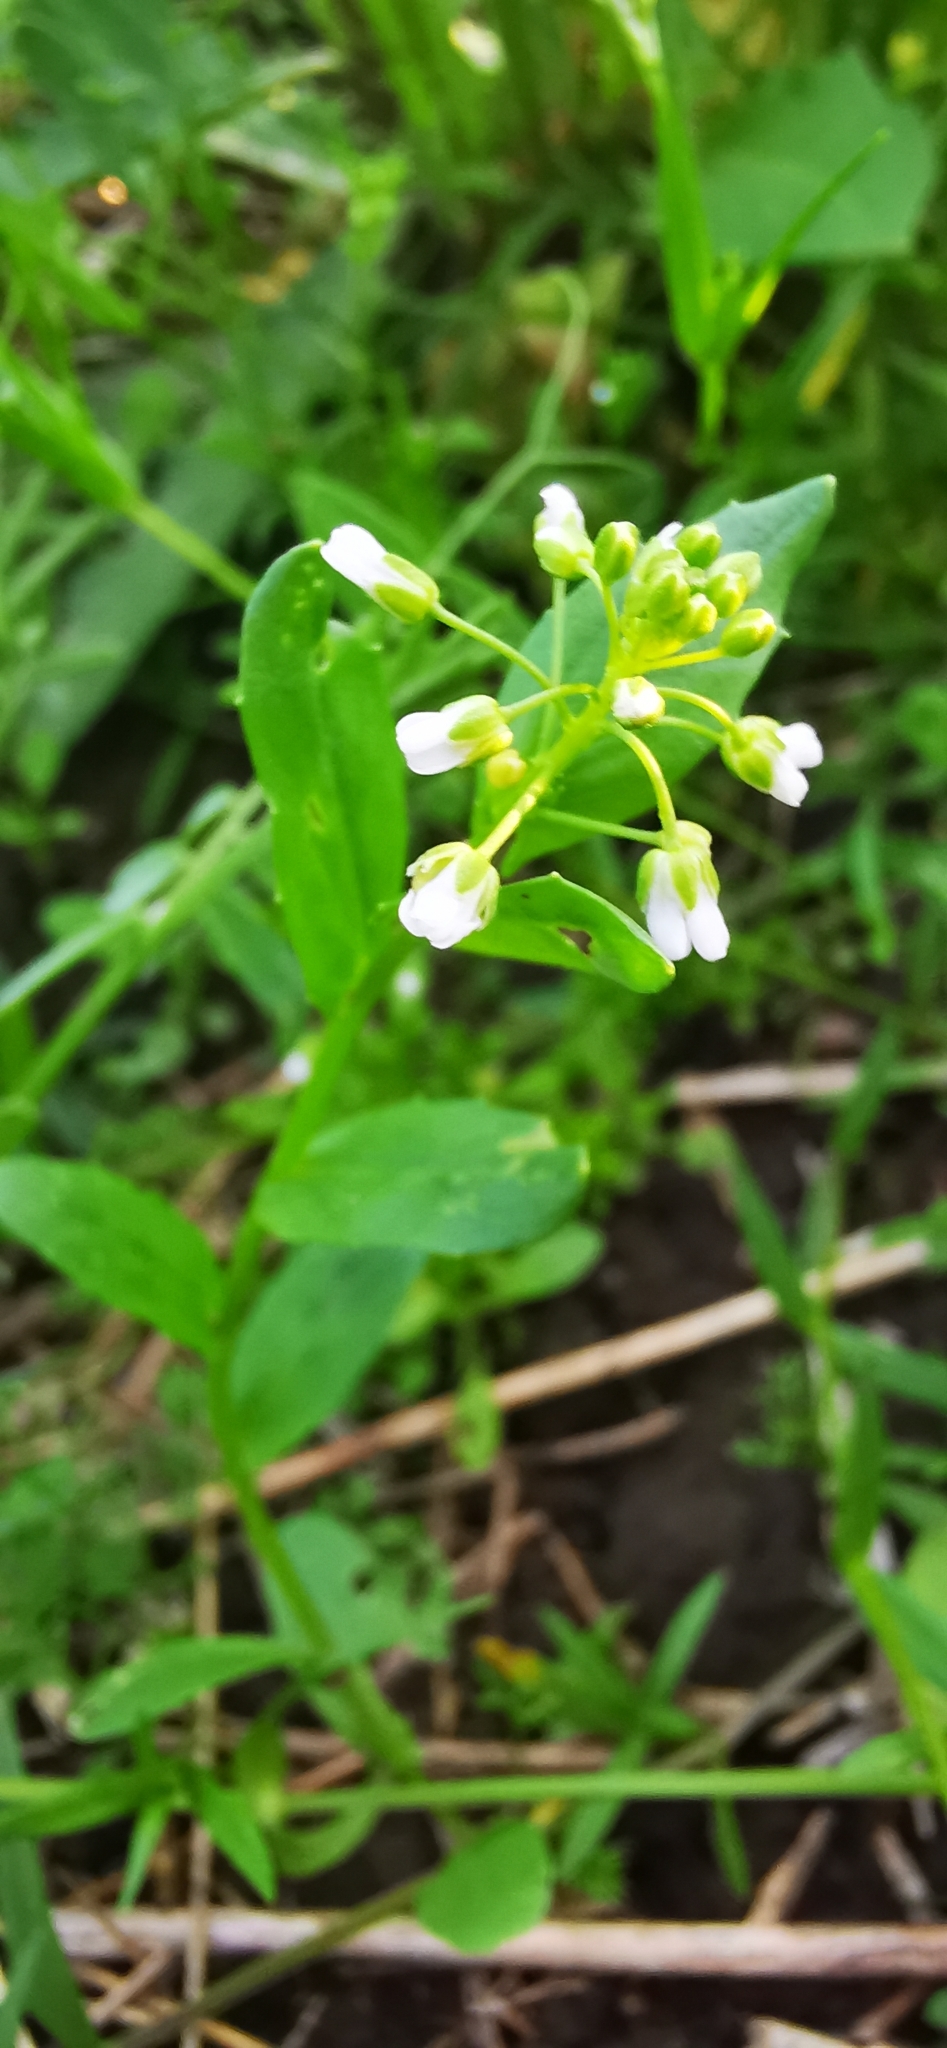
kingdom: Plantae
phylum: Tracheophyta
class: Magnoliopsida
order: Brassicales
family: Brassicaceae
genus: Thlaspi
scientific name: Thlaspi arvense
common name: Field pennycress
